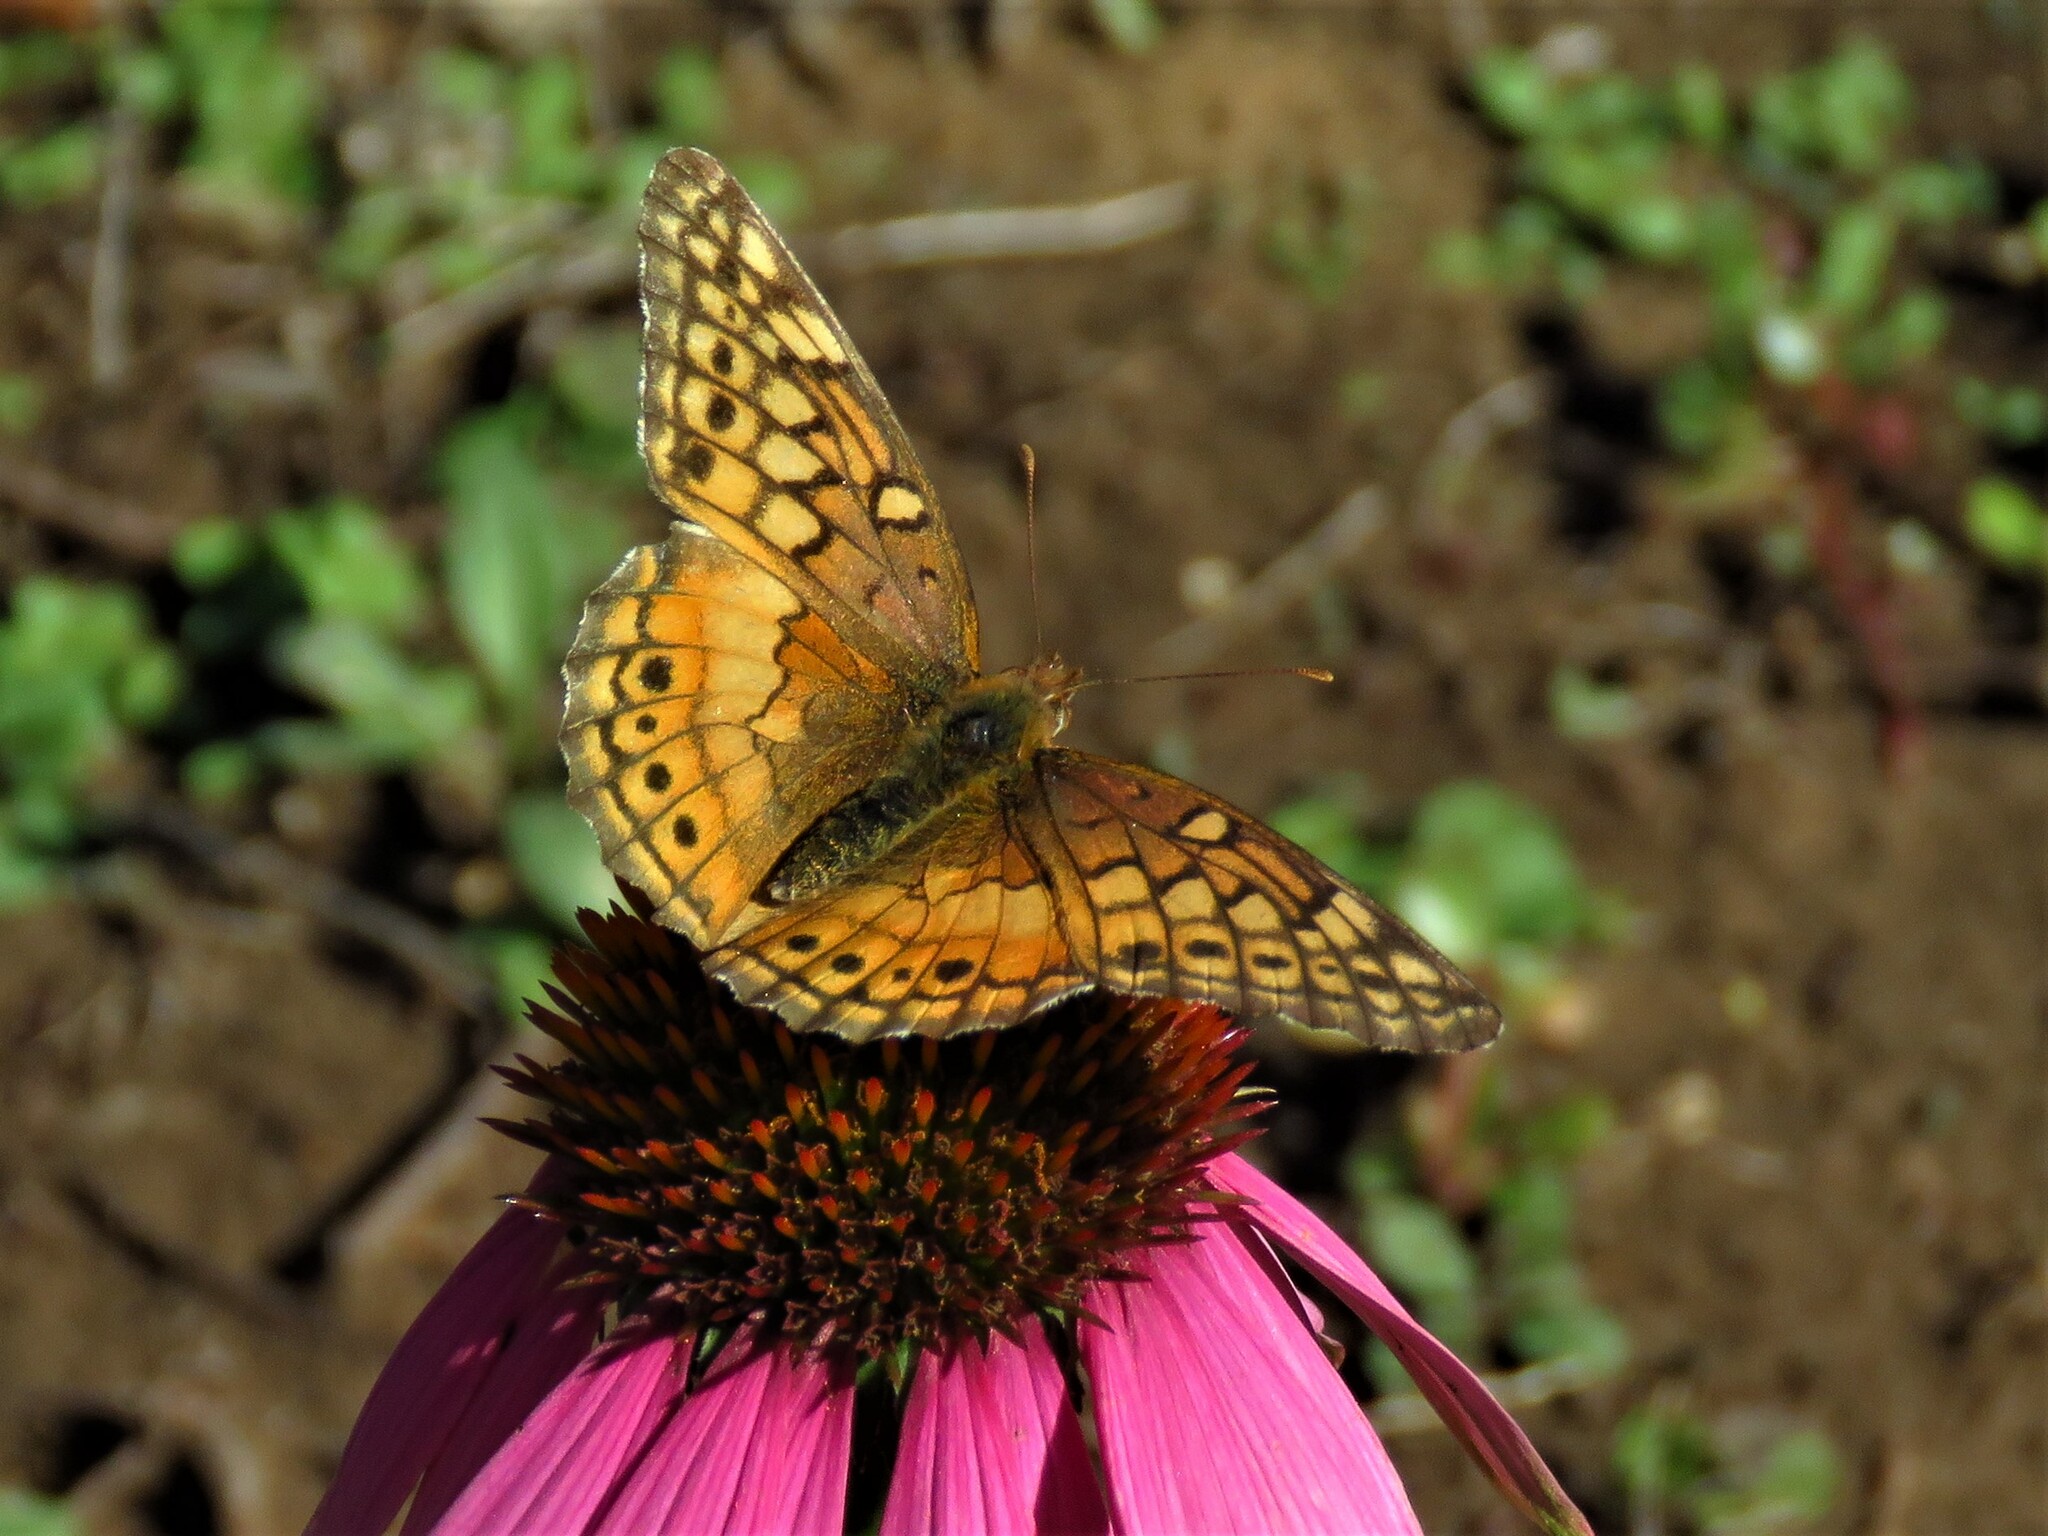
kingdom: Animalia
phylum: Arthropoda
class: Insecta
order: Lepidoptera
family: Nymphalidae
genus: Euptoieta
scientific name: Euptoieta claudia
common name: Variegated fritillary
